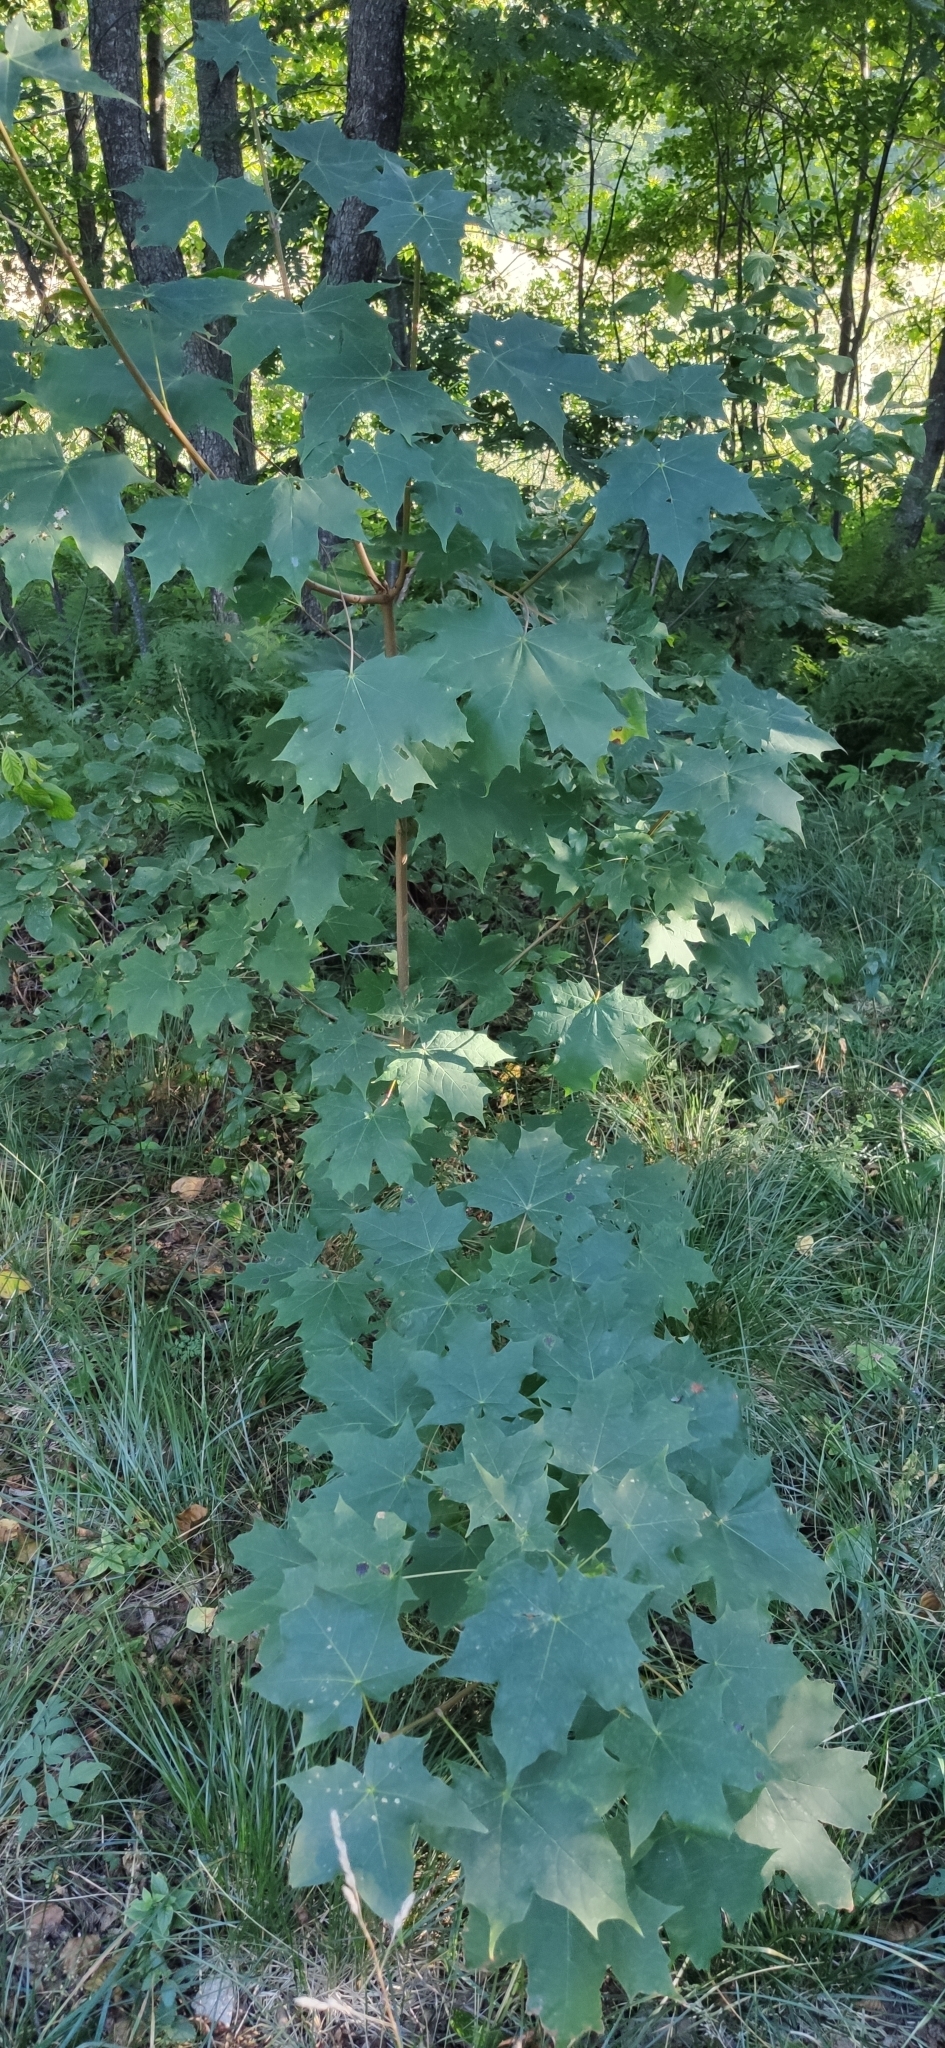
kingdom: Plantae
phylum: Tracheophyta
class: Magnoliopsida
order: Sapindales
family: Sapindaceae
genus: Acer
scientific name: Acer platanoides
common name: Norway maple
